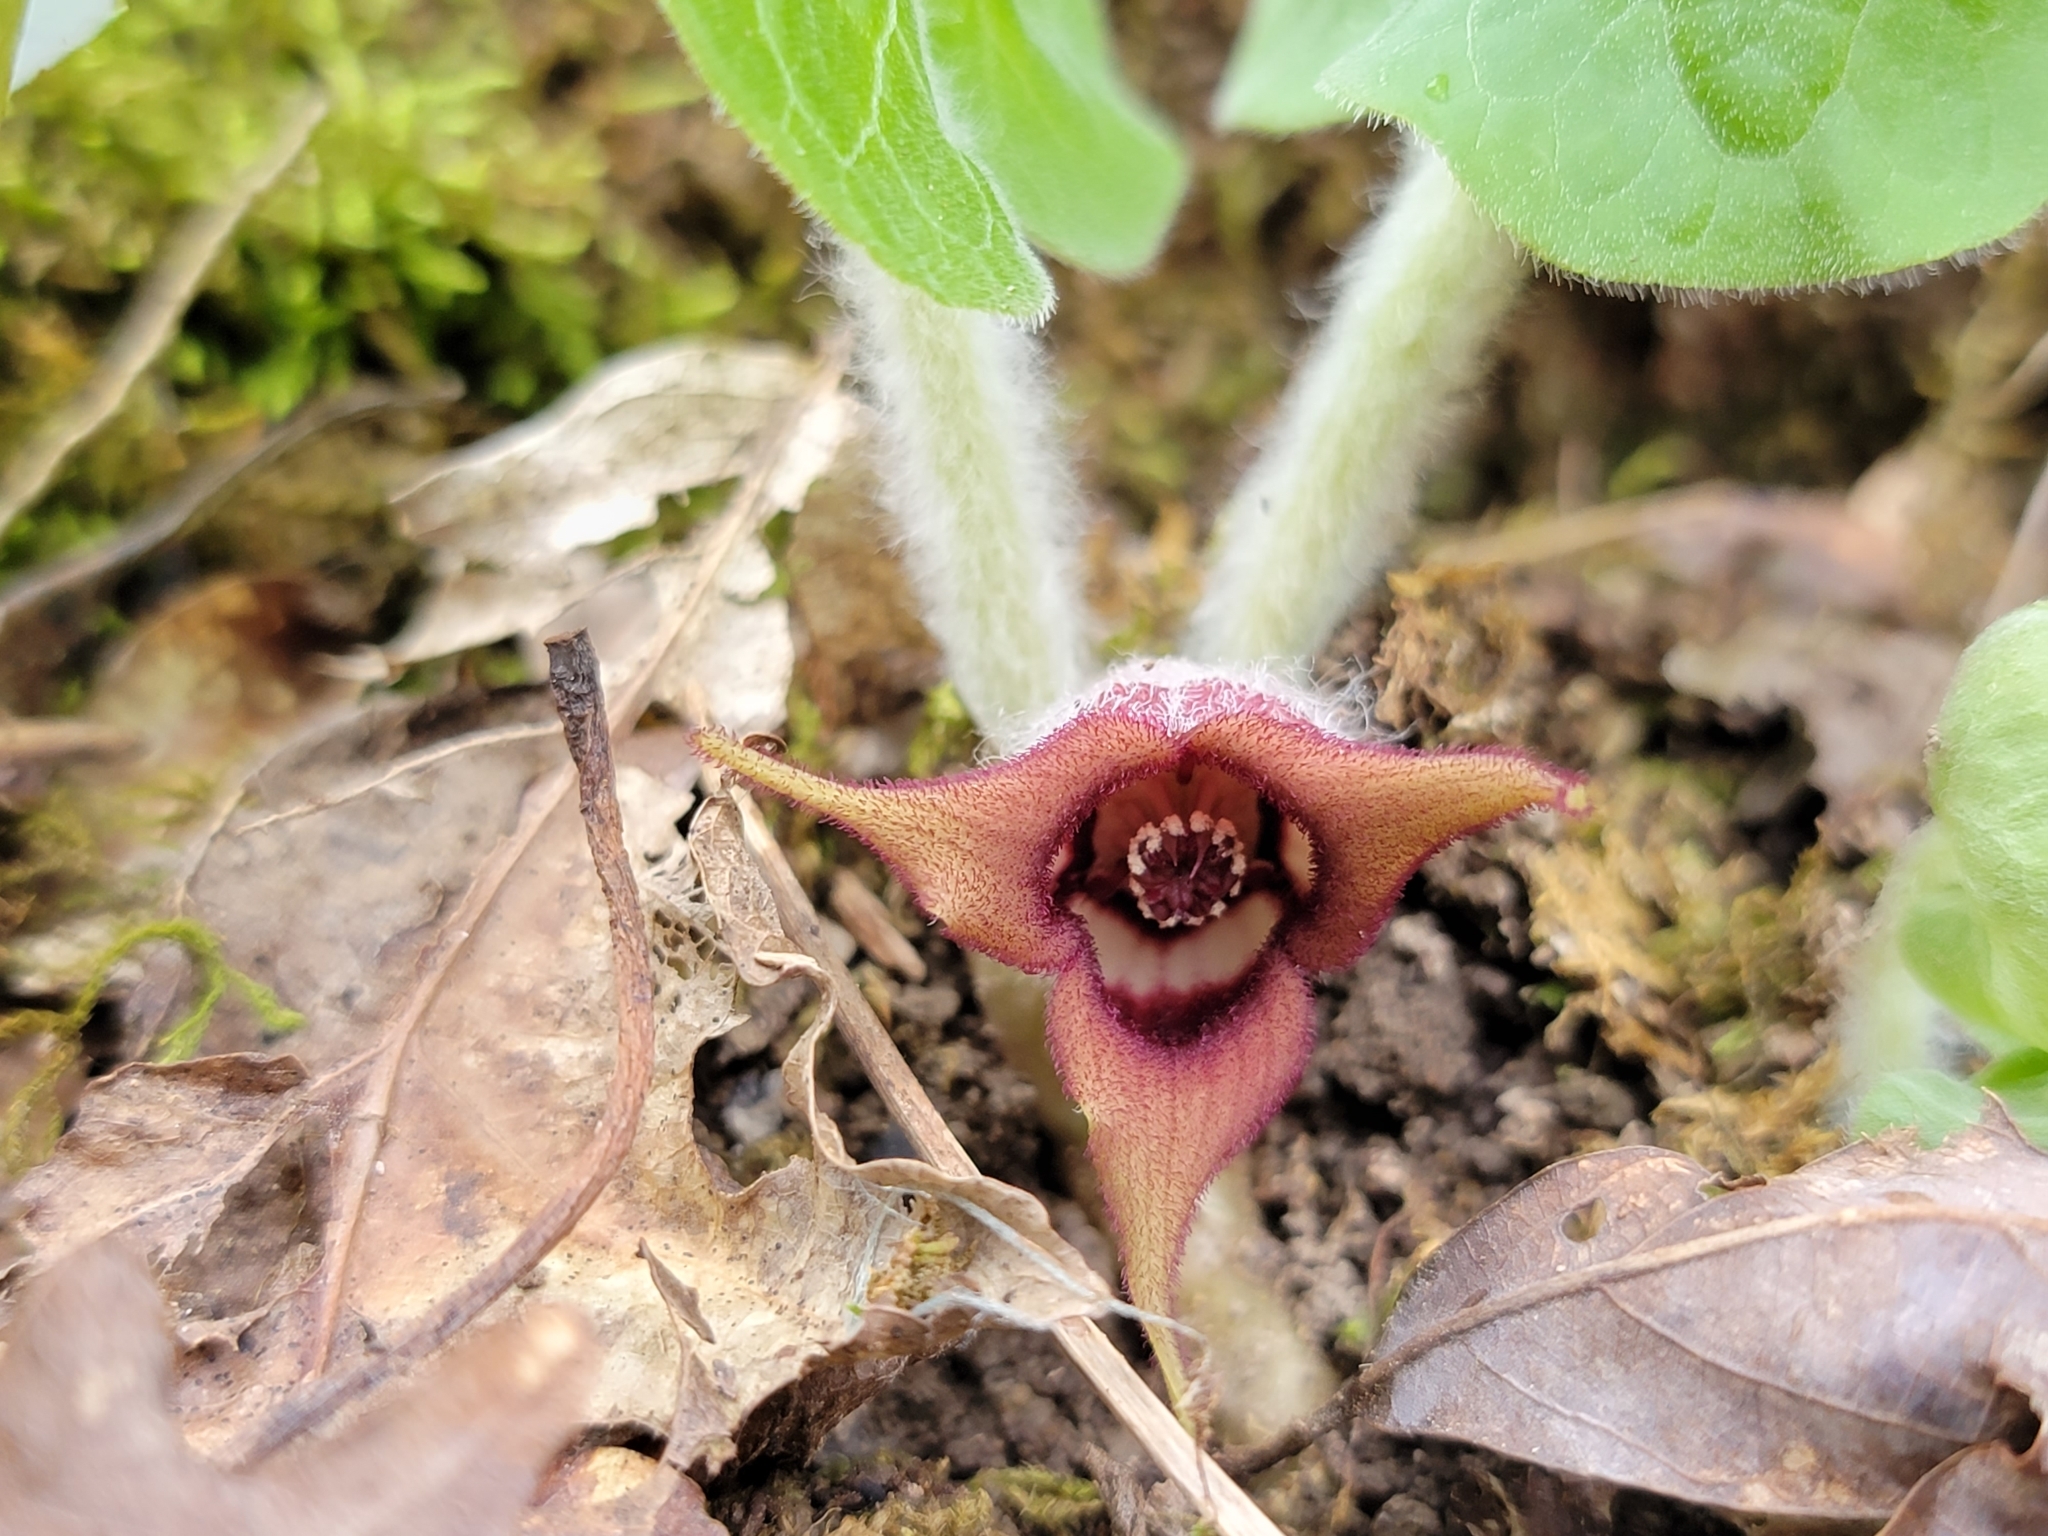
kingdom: Plantae
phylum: Tracheophyta
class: Magnoliopsida
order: Piperales
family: Aristolochiaceae
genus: Asarum
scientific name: Asarum canadense
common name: Wild ginger
